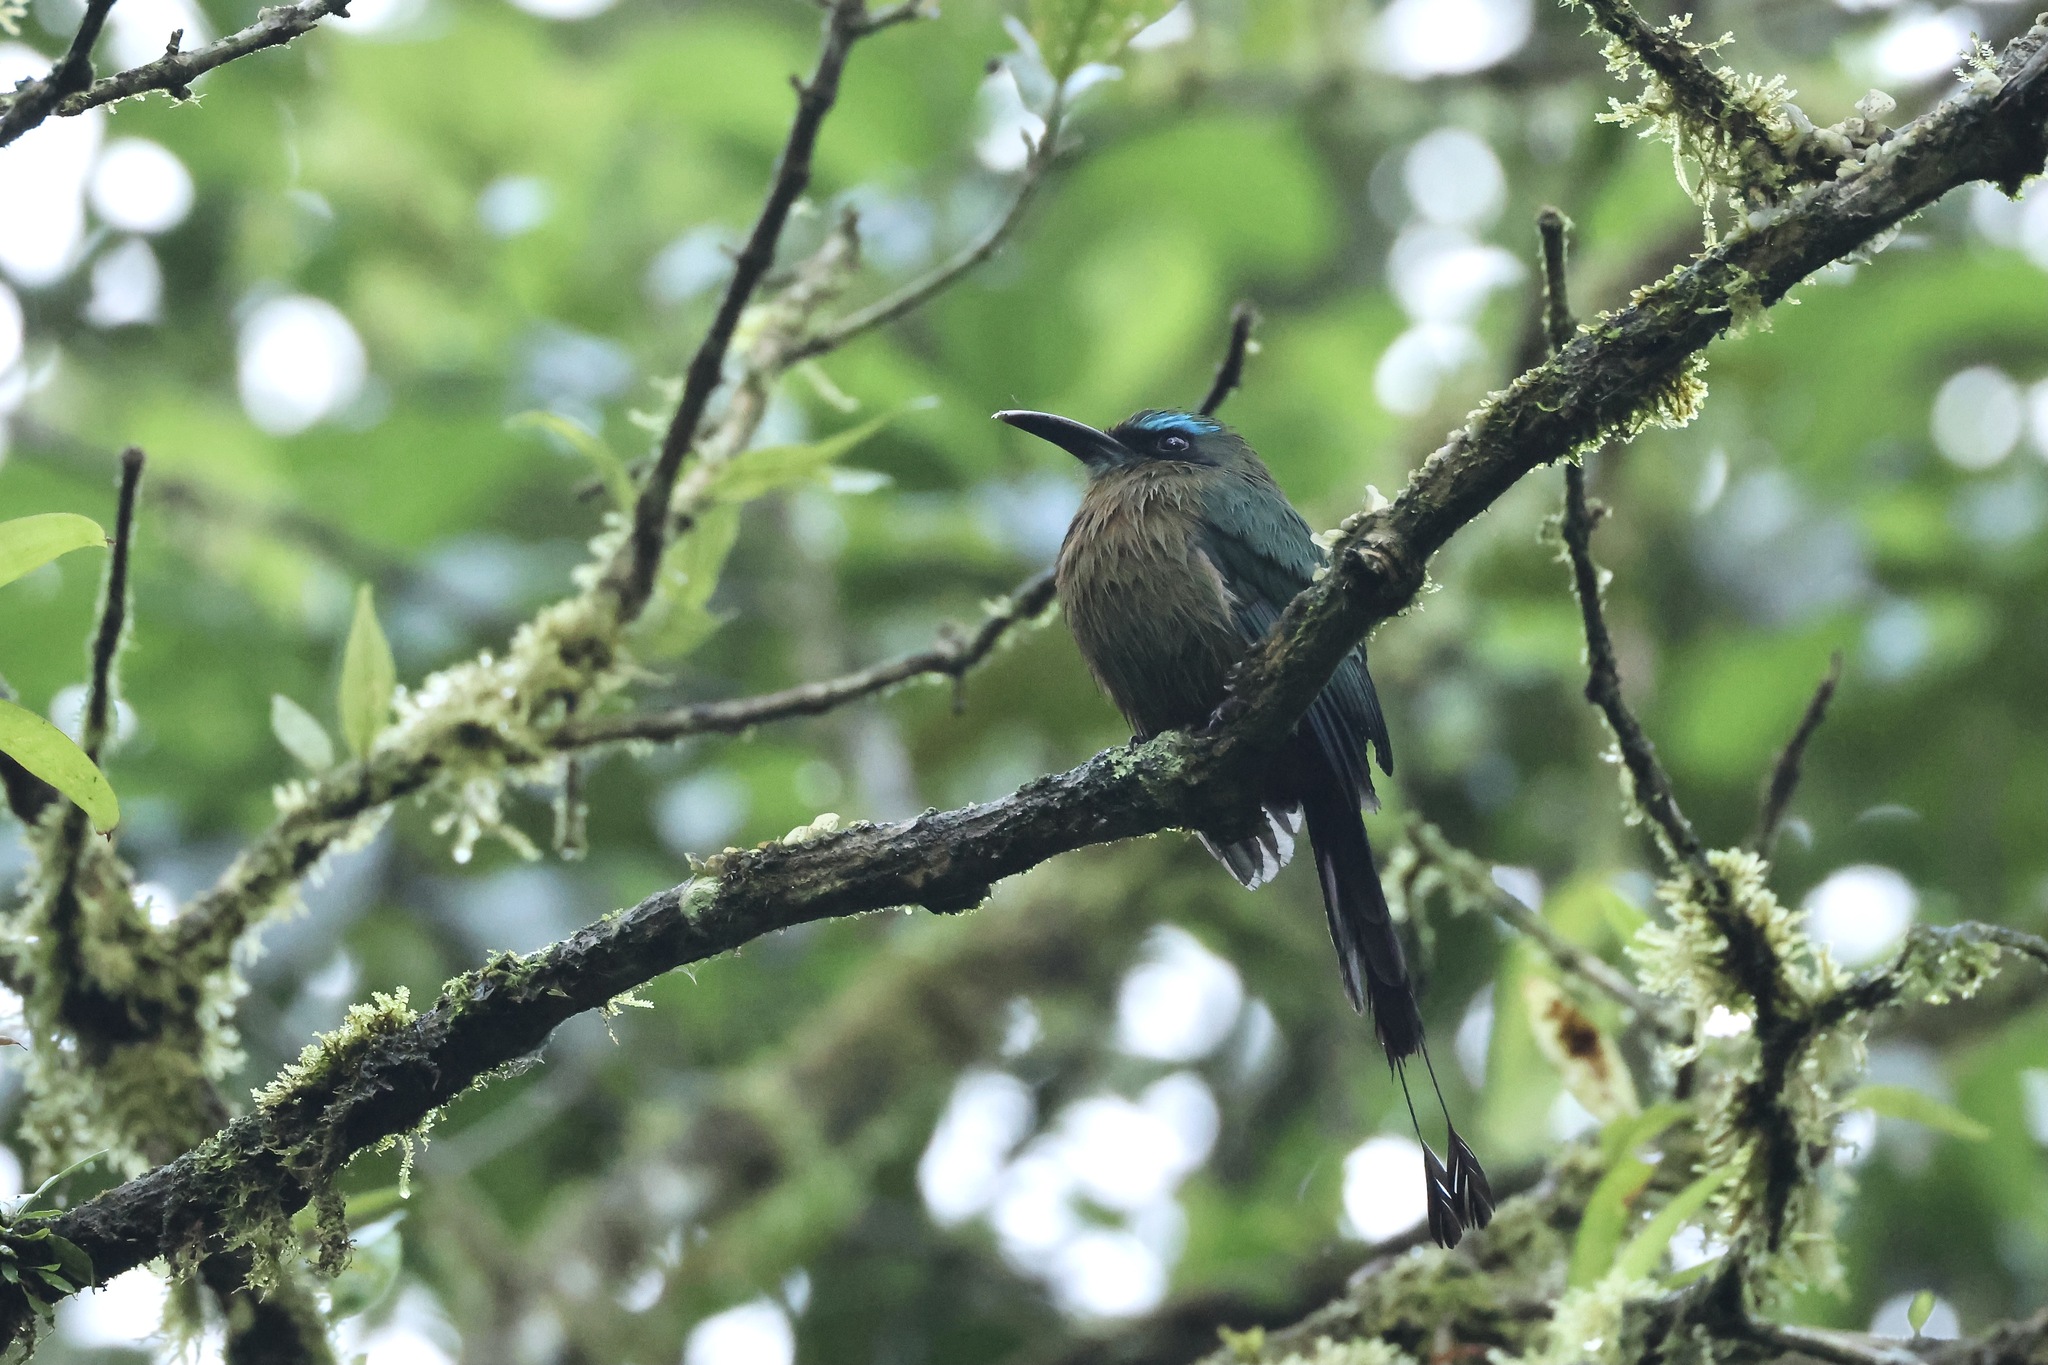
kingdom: Animalia
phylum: Chordata
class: Aves
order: Coraciiformes
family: Momotidae
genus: Electron
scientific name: Electron carinatum
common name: Keel-billed motmot
